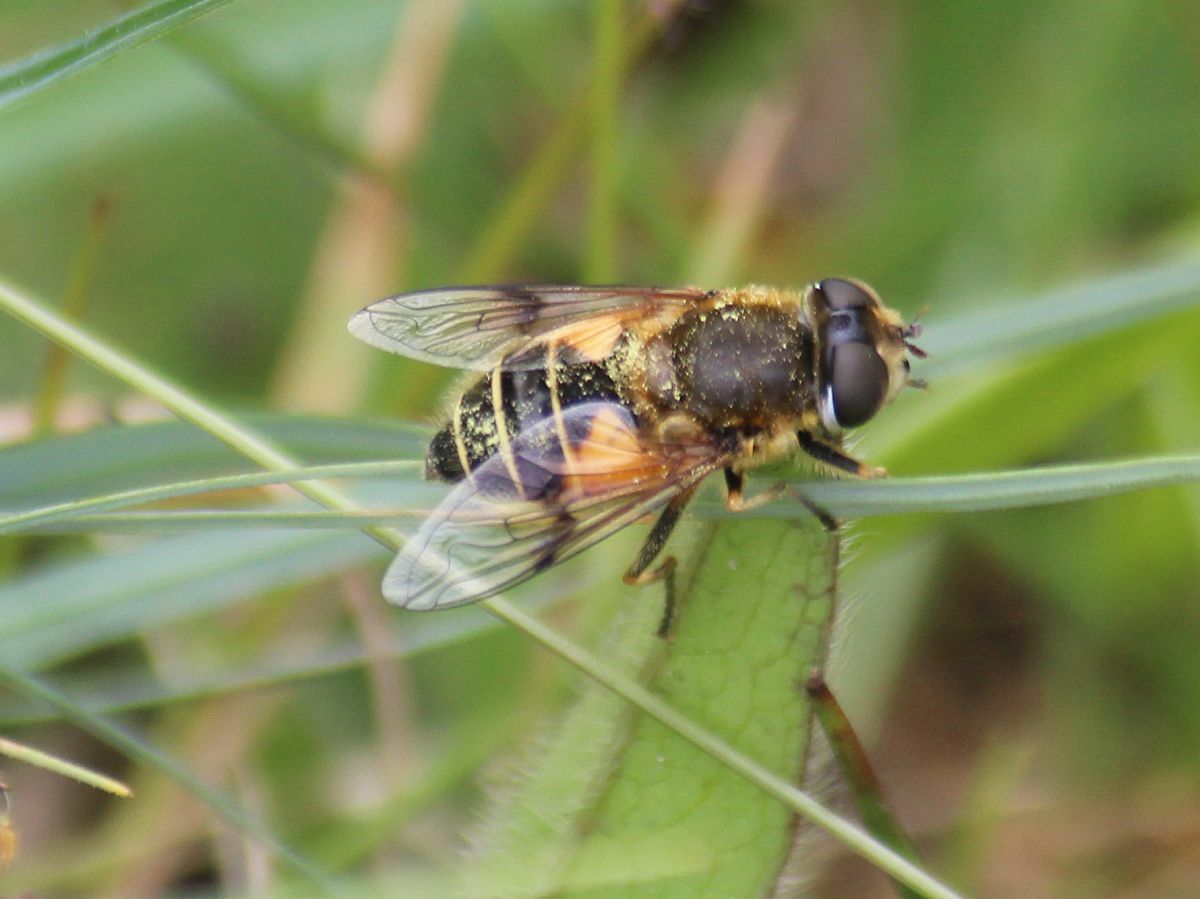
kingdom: Animalia
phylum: Arthropoda
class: Insecta
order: Diptera
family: Syrphidae
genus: Cheilosia
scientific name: Cheilosia morio
